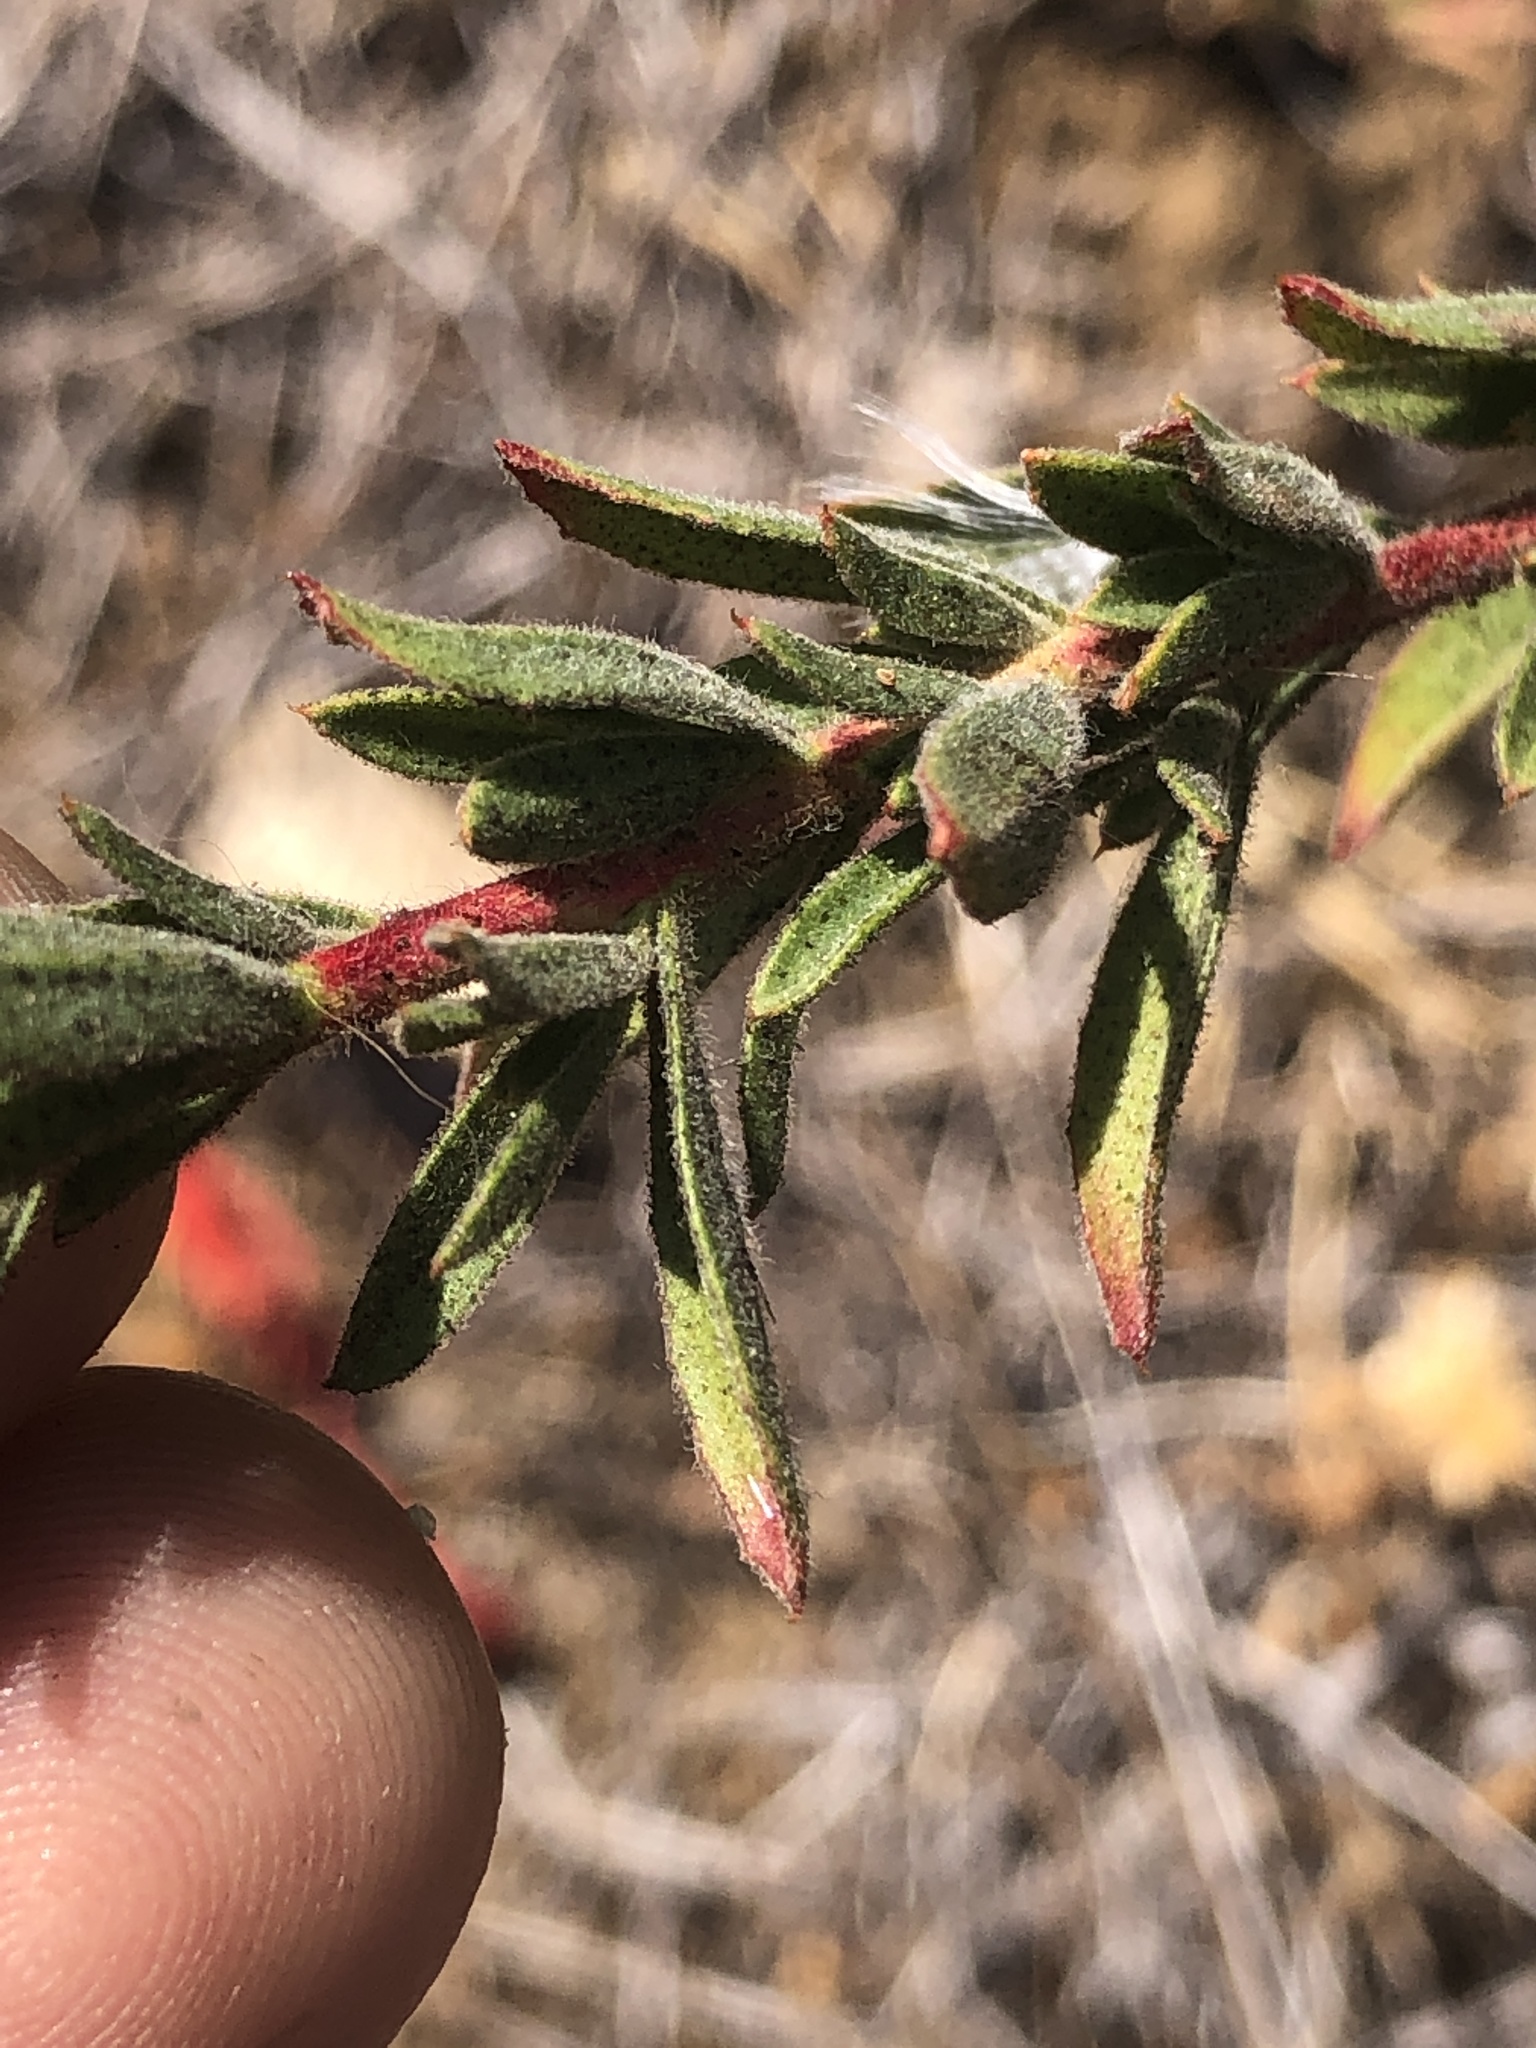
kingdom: Plantae
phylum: Tracheophyta
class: Magnoliopsida
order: Myrtales
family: Onagraceae
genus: Epilobium
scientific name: Epilobium canum
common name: California-fuchsia
